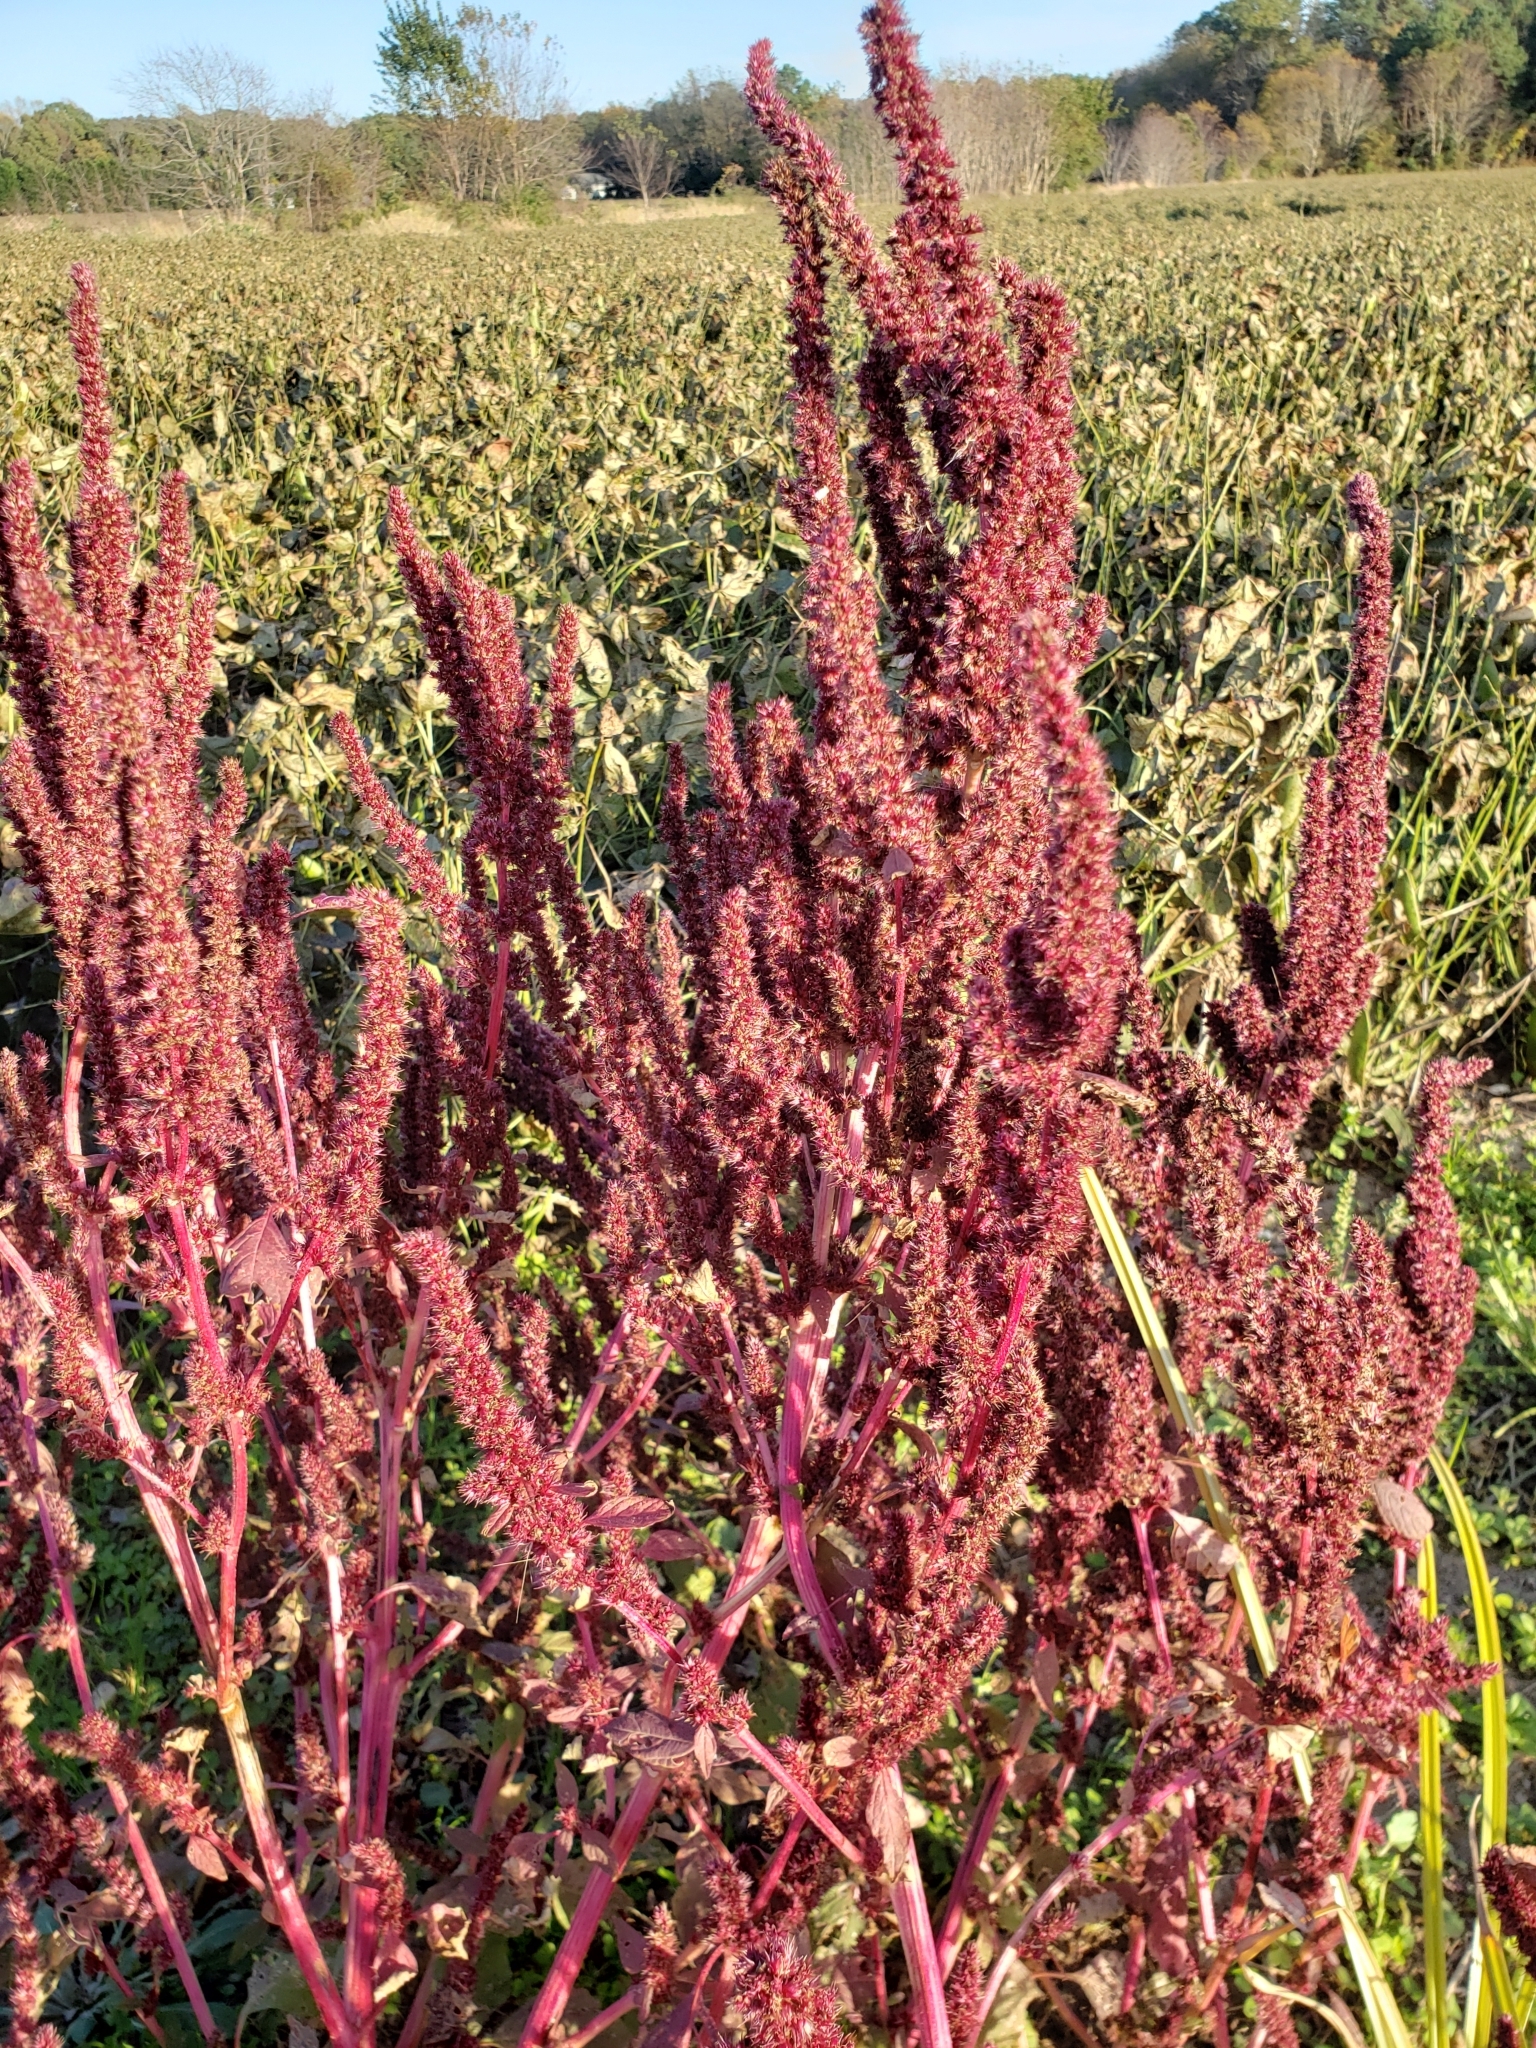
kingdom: Plantae
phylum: Tracheophyta
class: Magnoliopsida
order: Caryophyllales
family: Amaranthaceae
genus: Amaranthus
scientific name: Amaranthus cruentus
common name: Purple amaranth
